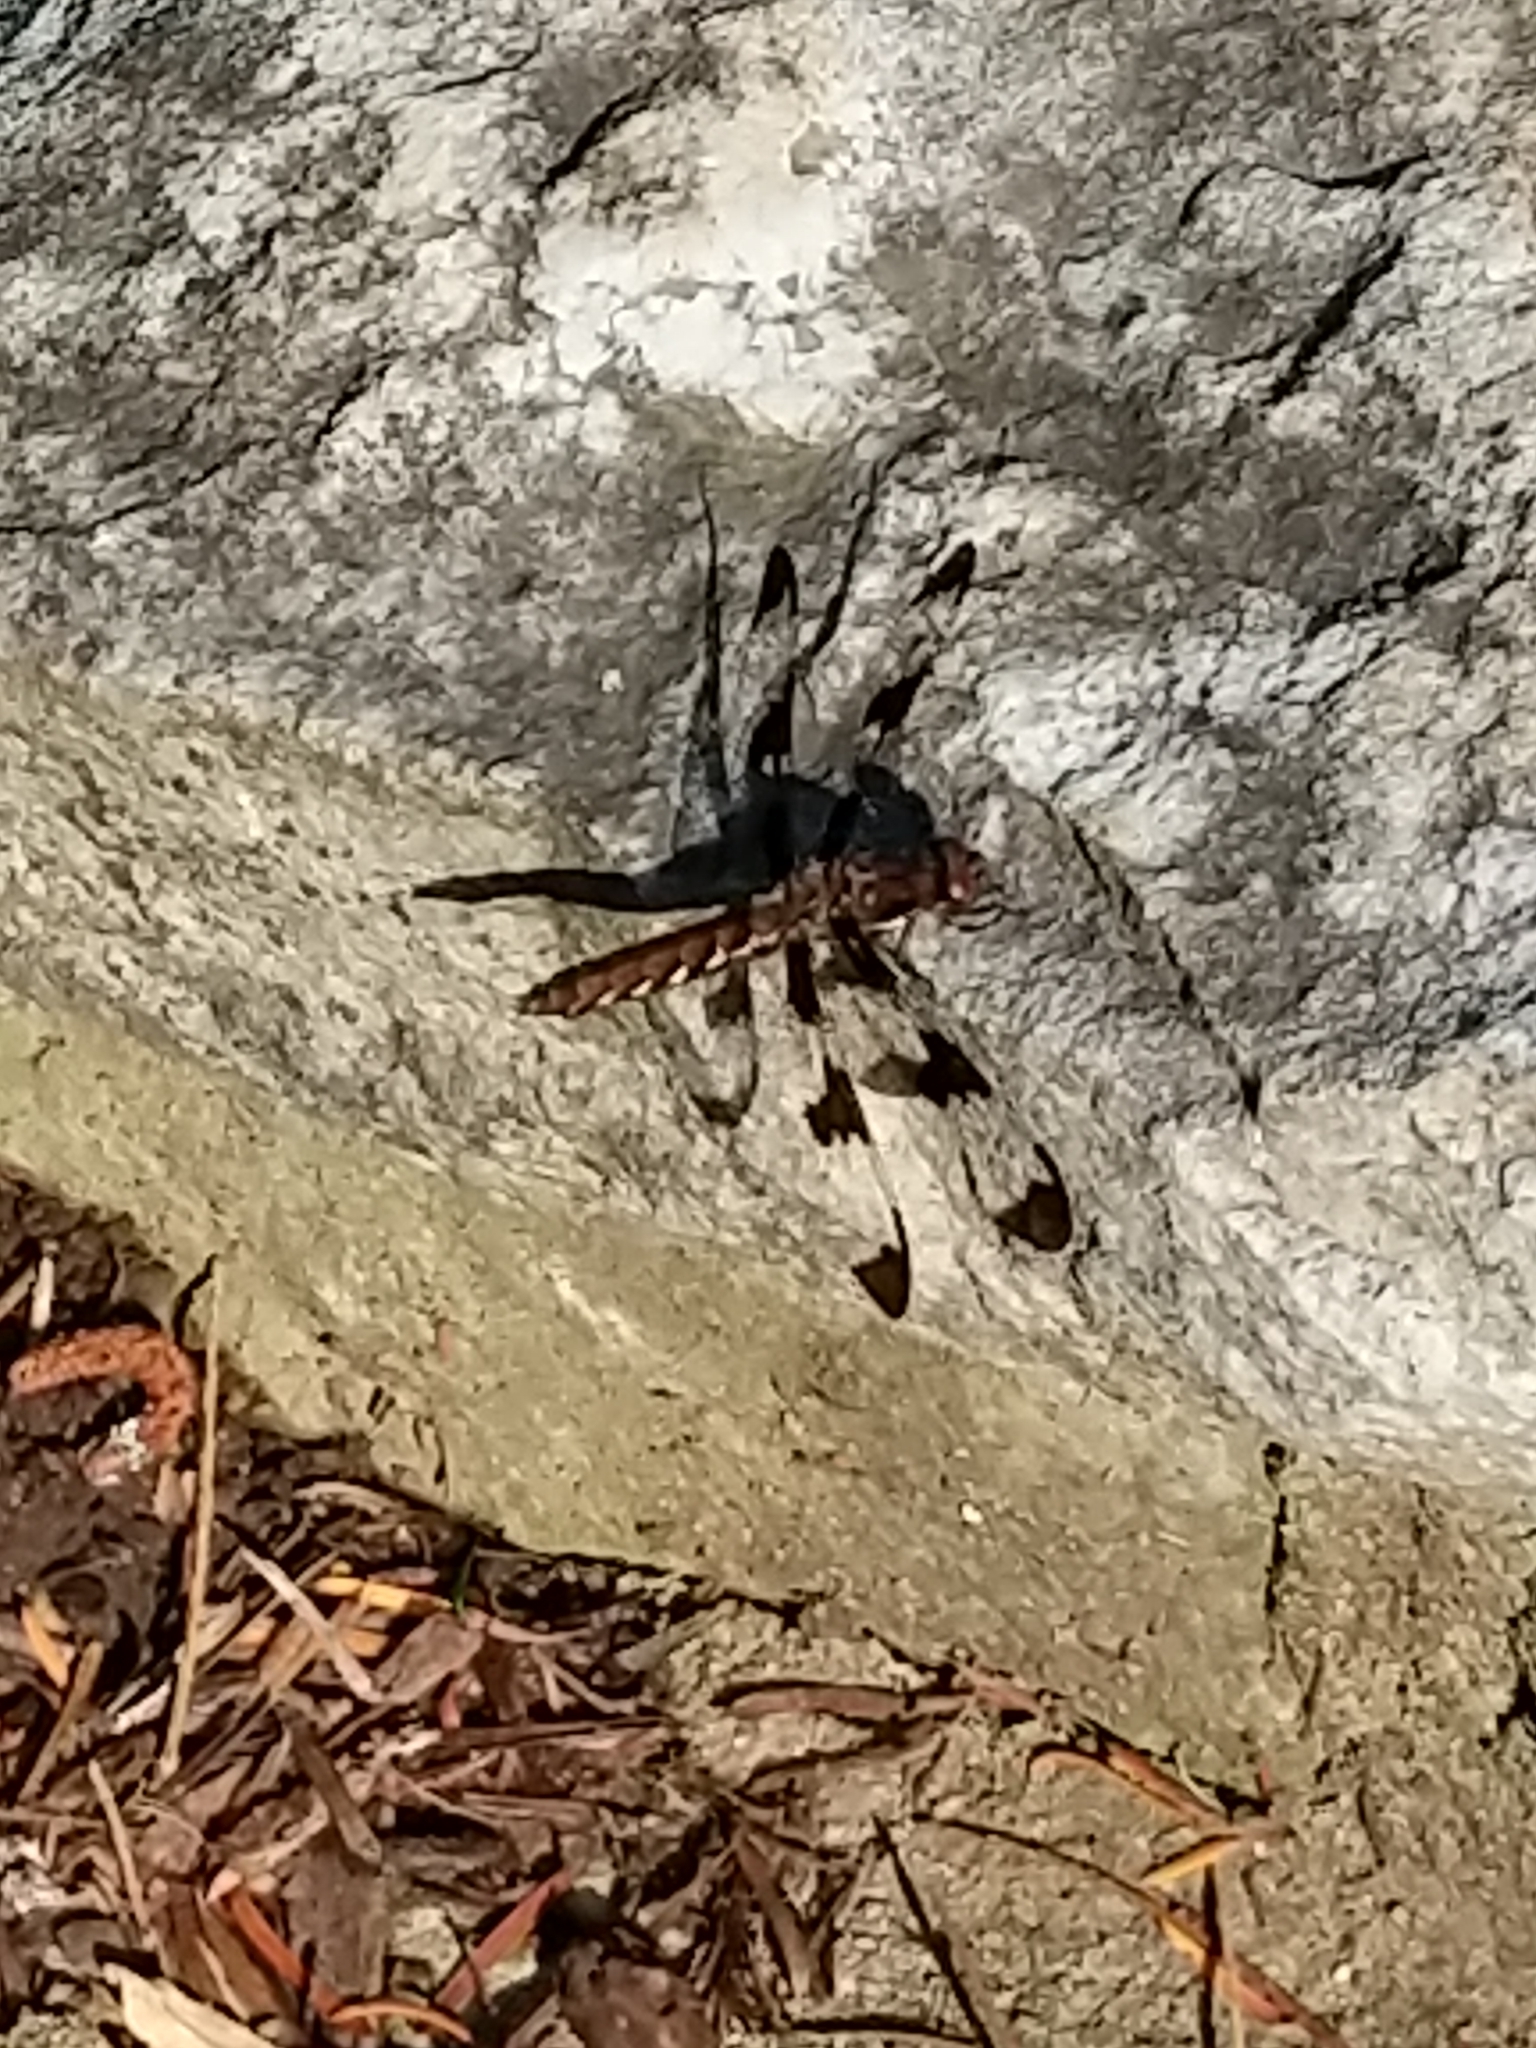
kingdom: Animalia
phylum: Arthropoda
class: Insecta
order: Odonata
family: Libellulidae
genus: Plathemis
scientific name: Plathemis lydia
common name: Common whitetail
